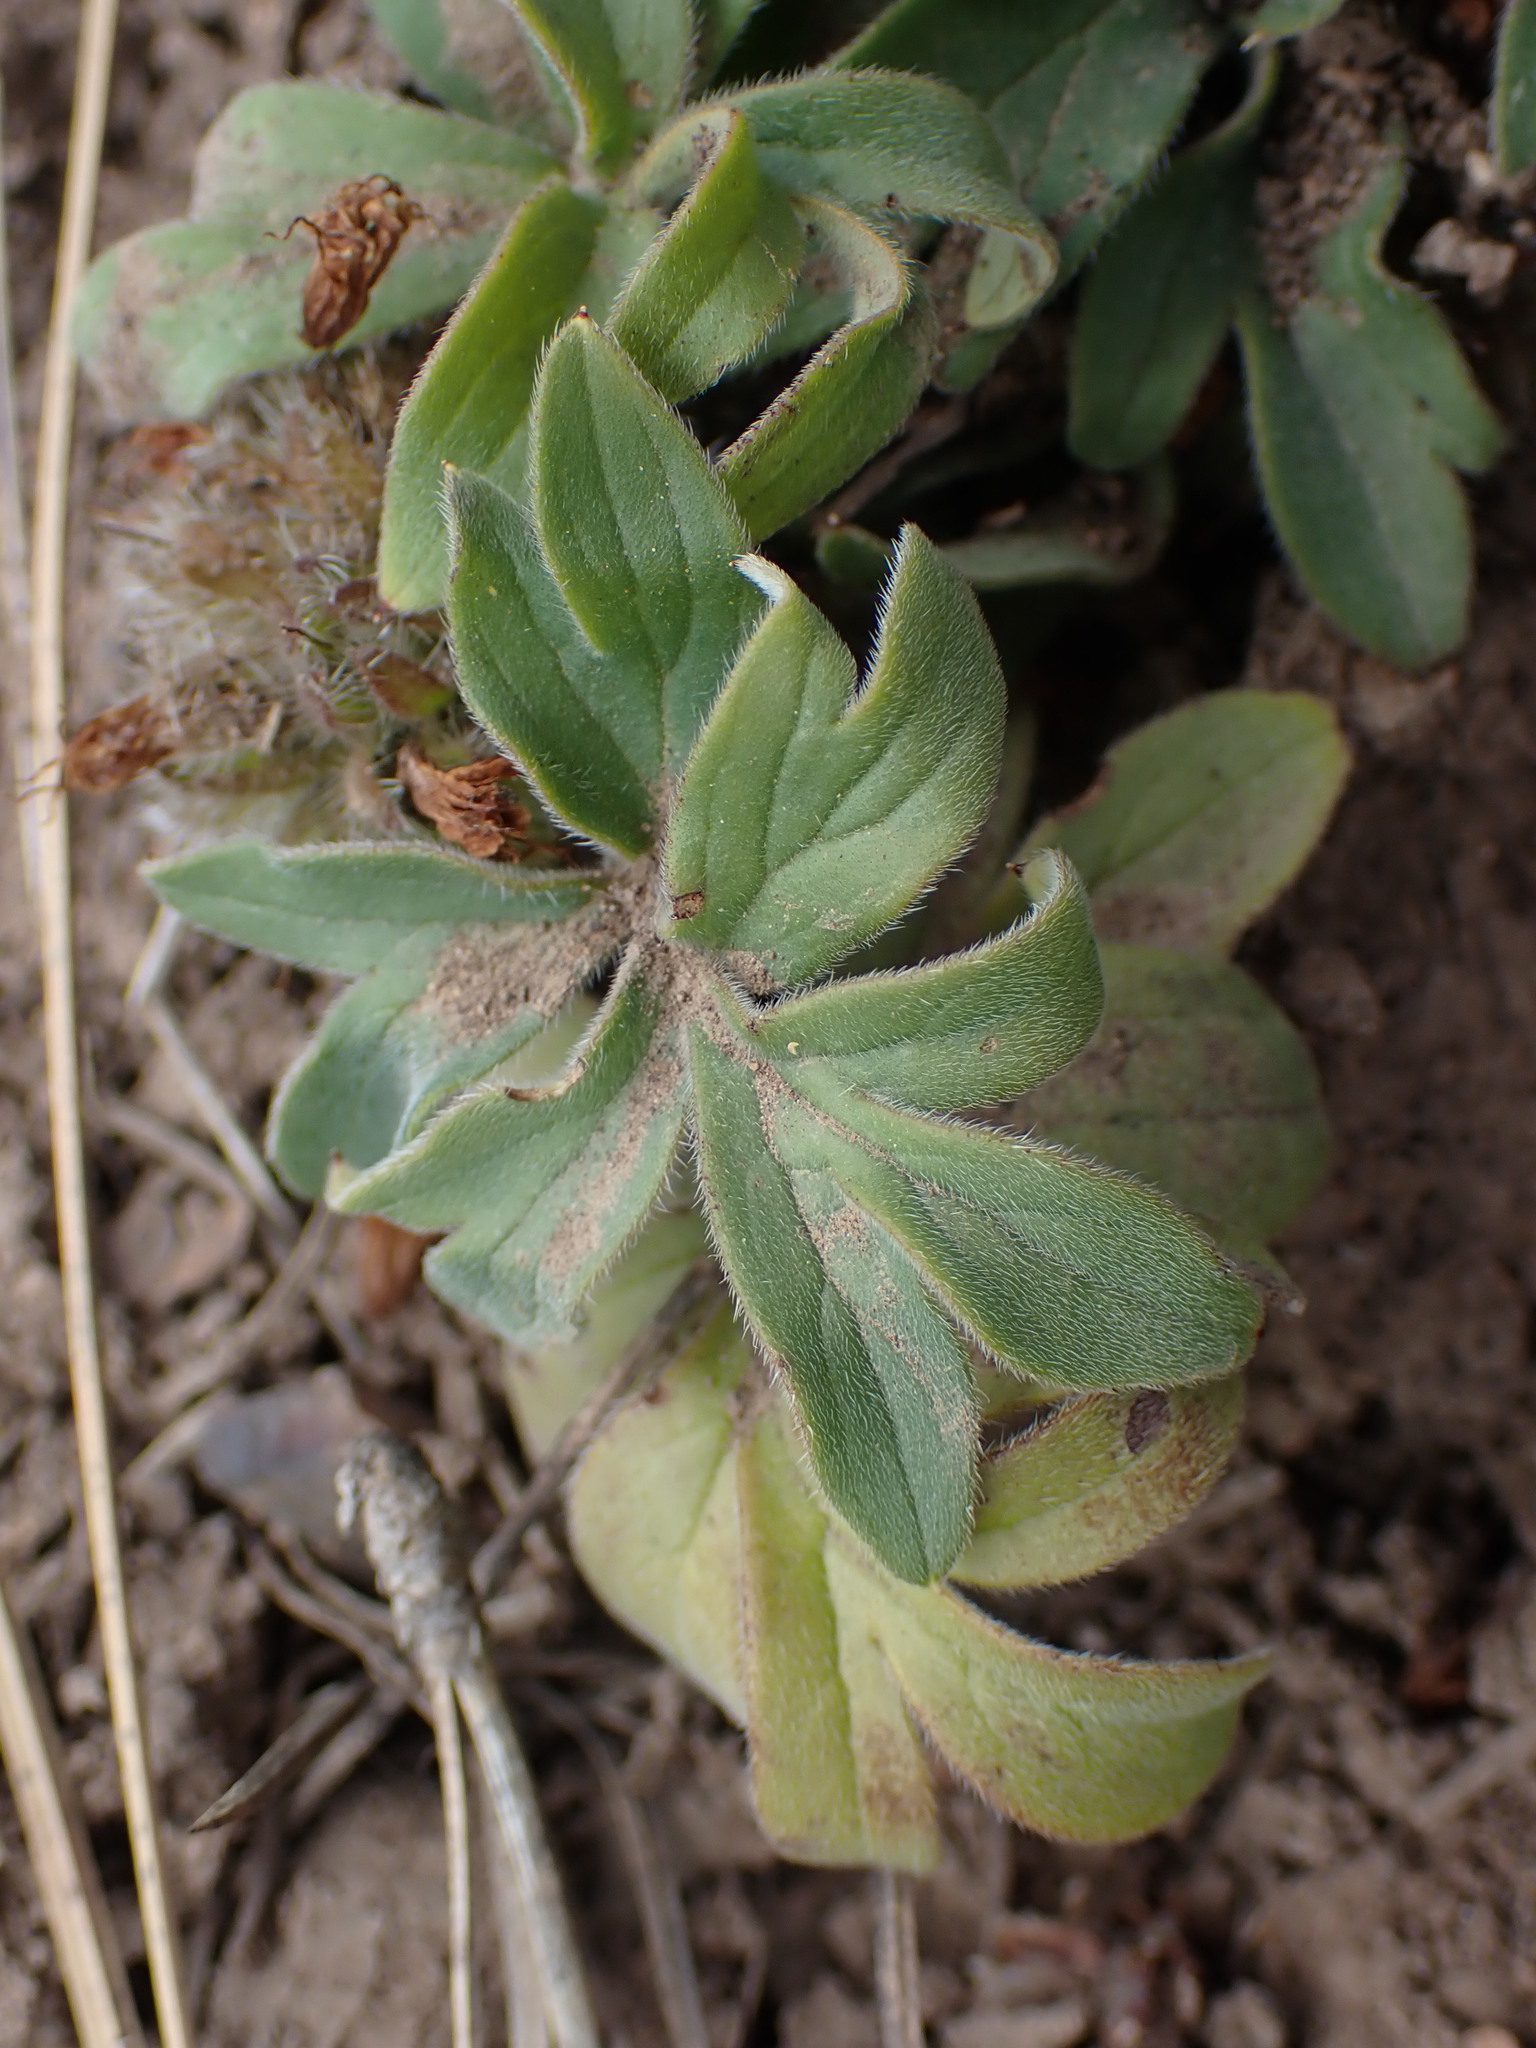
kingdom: Plantae
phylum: Tracheophyta
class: Magnoliopsida
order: Boraginales
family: Hydrophyllaceae
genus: Hydrophyllum
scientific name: Hydrophyllum capitatum
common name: Woollen-breeches
